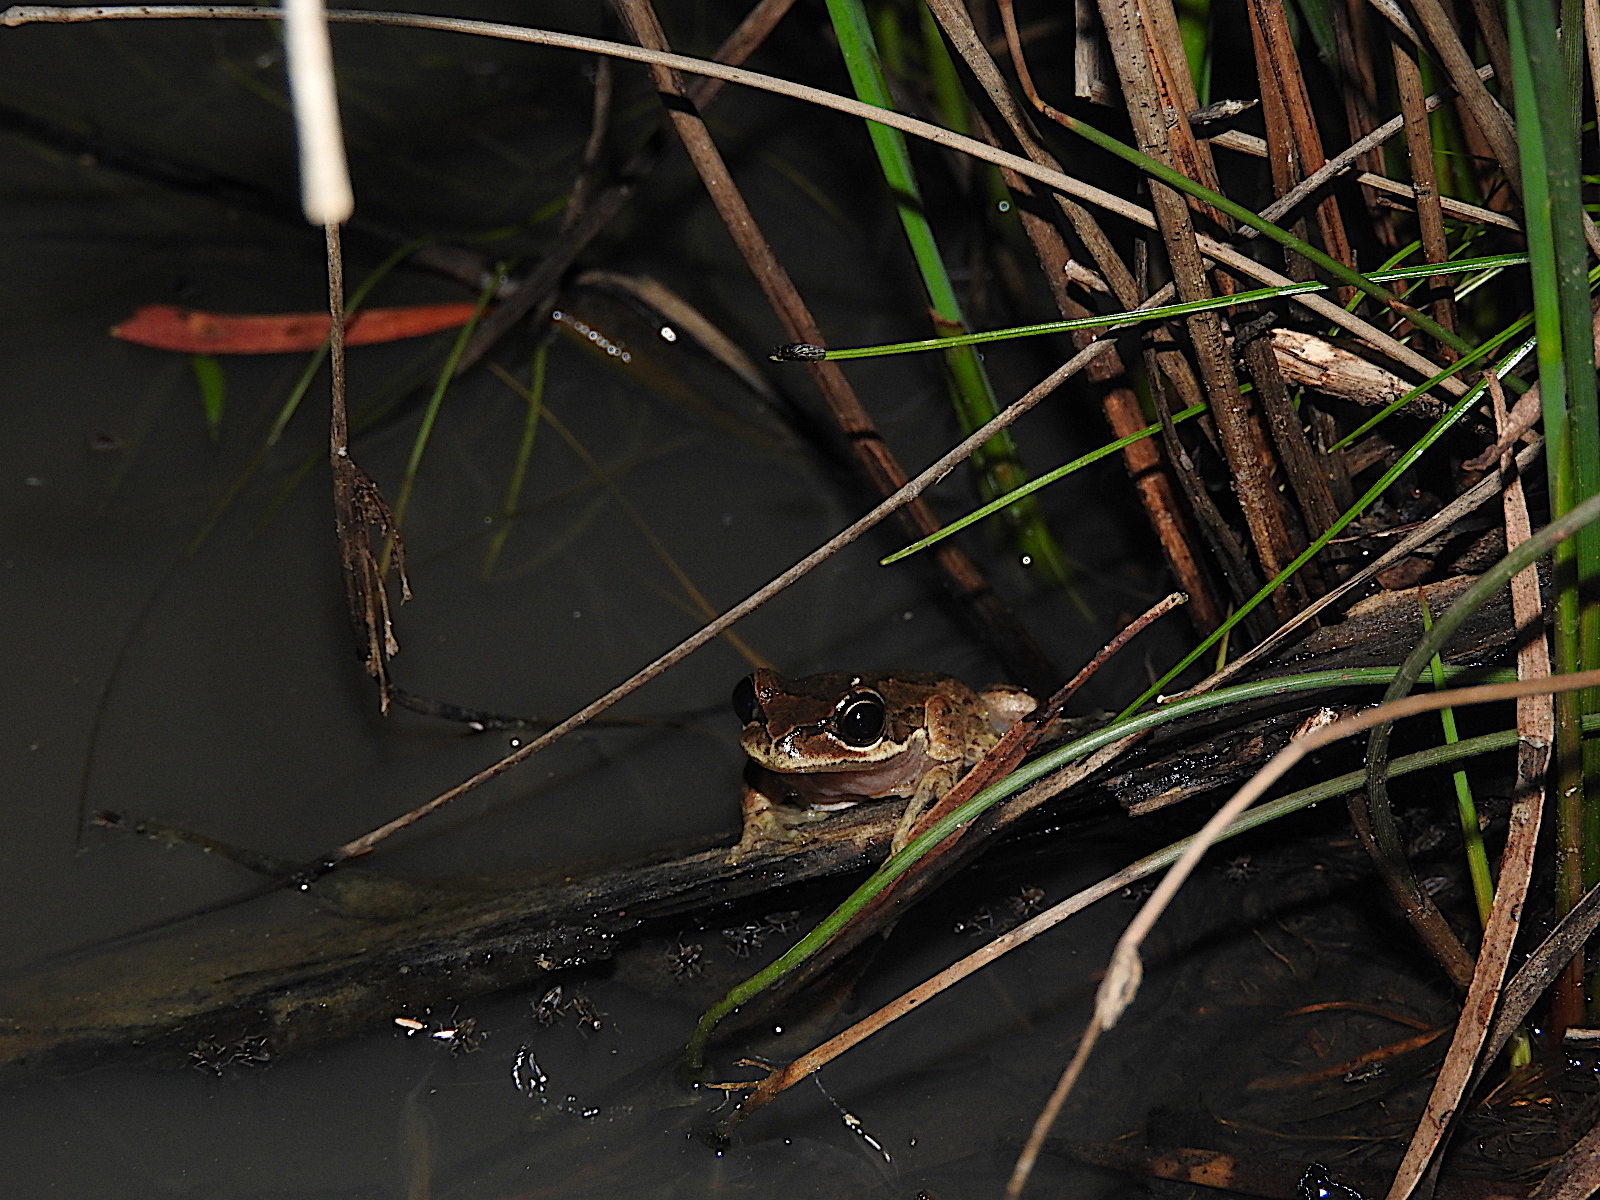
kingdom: Animalia
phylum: Chordata
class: Amphibia
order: Anura
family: Pelodryadidae
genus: Litoria
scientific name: Litoria ewingii
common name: Southern brown tree frog
